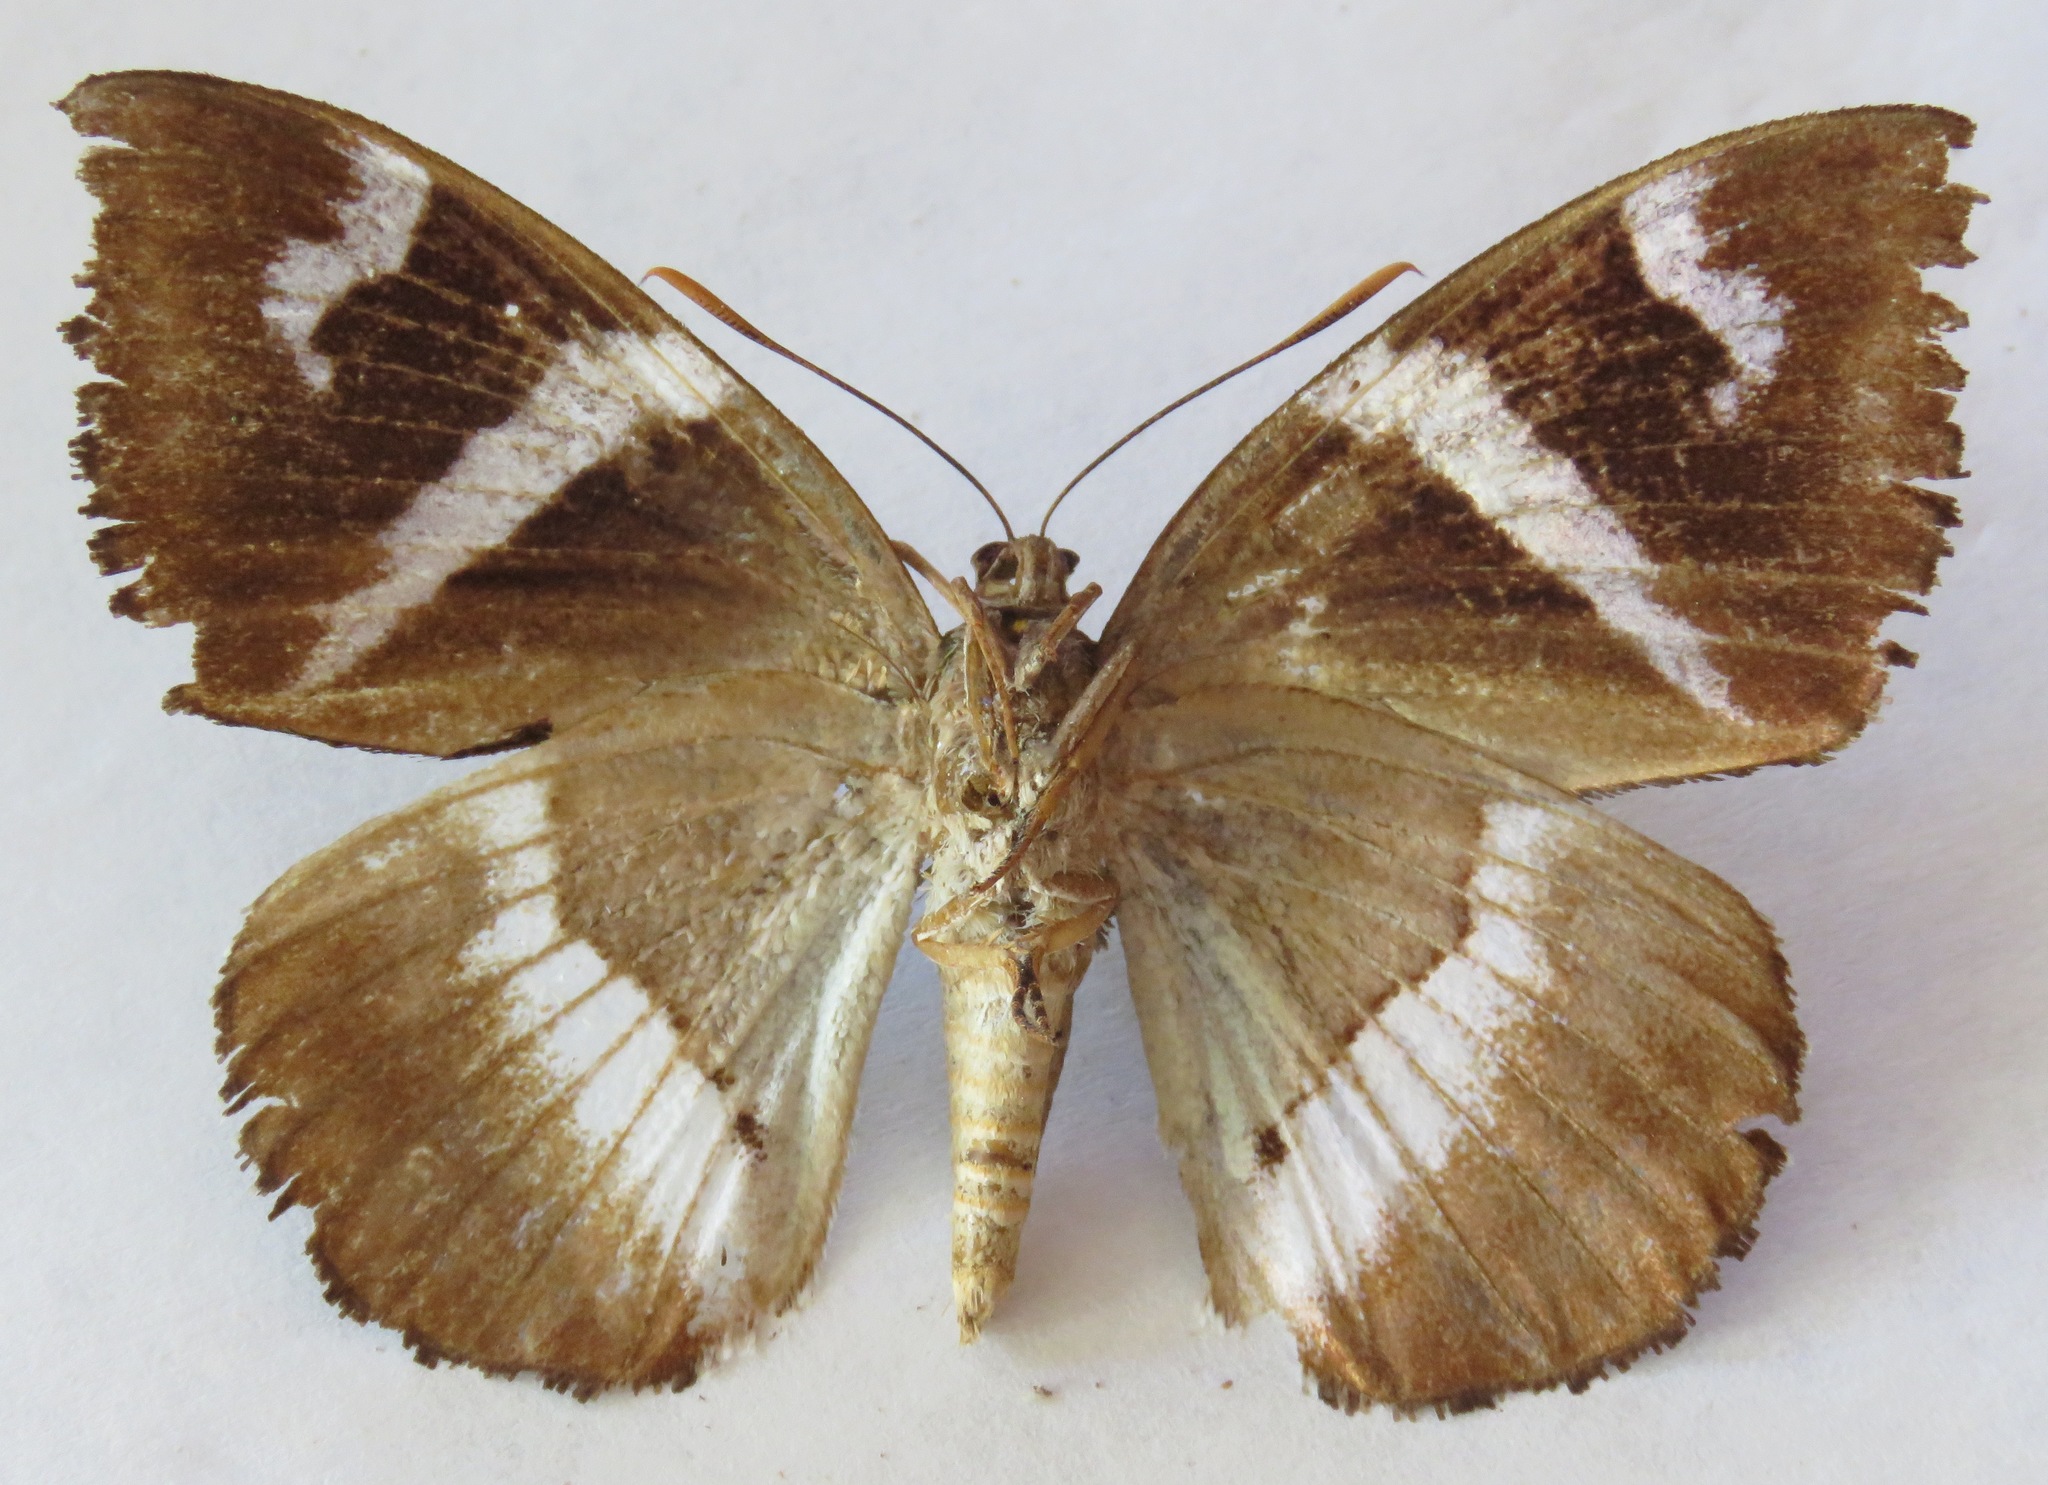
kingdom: Animalia
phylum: Arthropoda
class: Insecta
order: Lepidoptera
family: Castniidae
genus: Castniomera
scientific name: Castniomera atymnius
